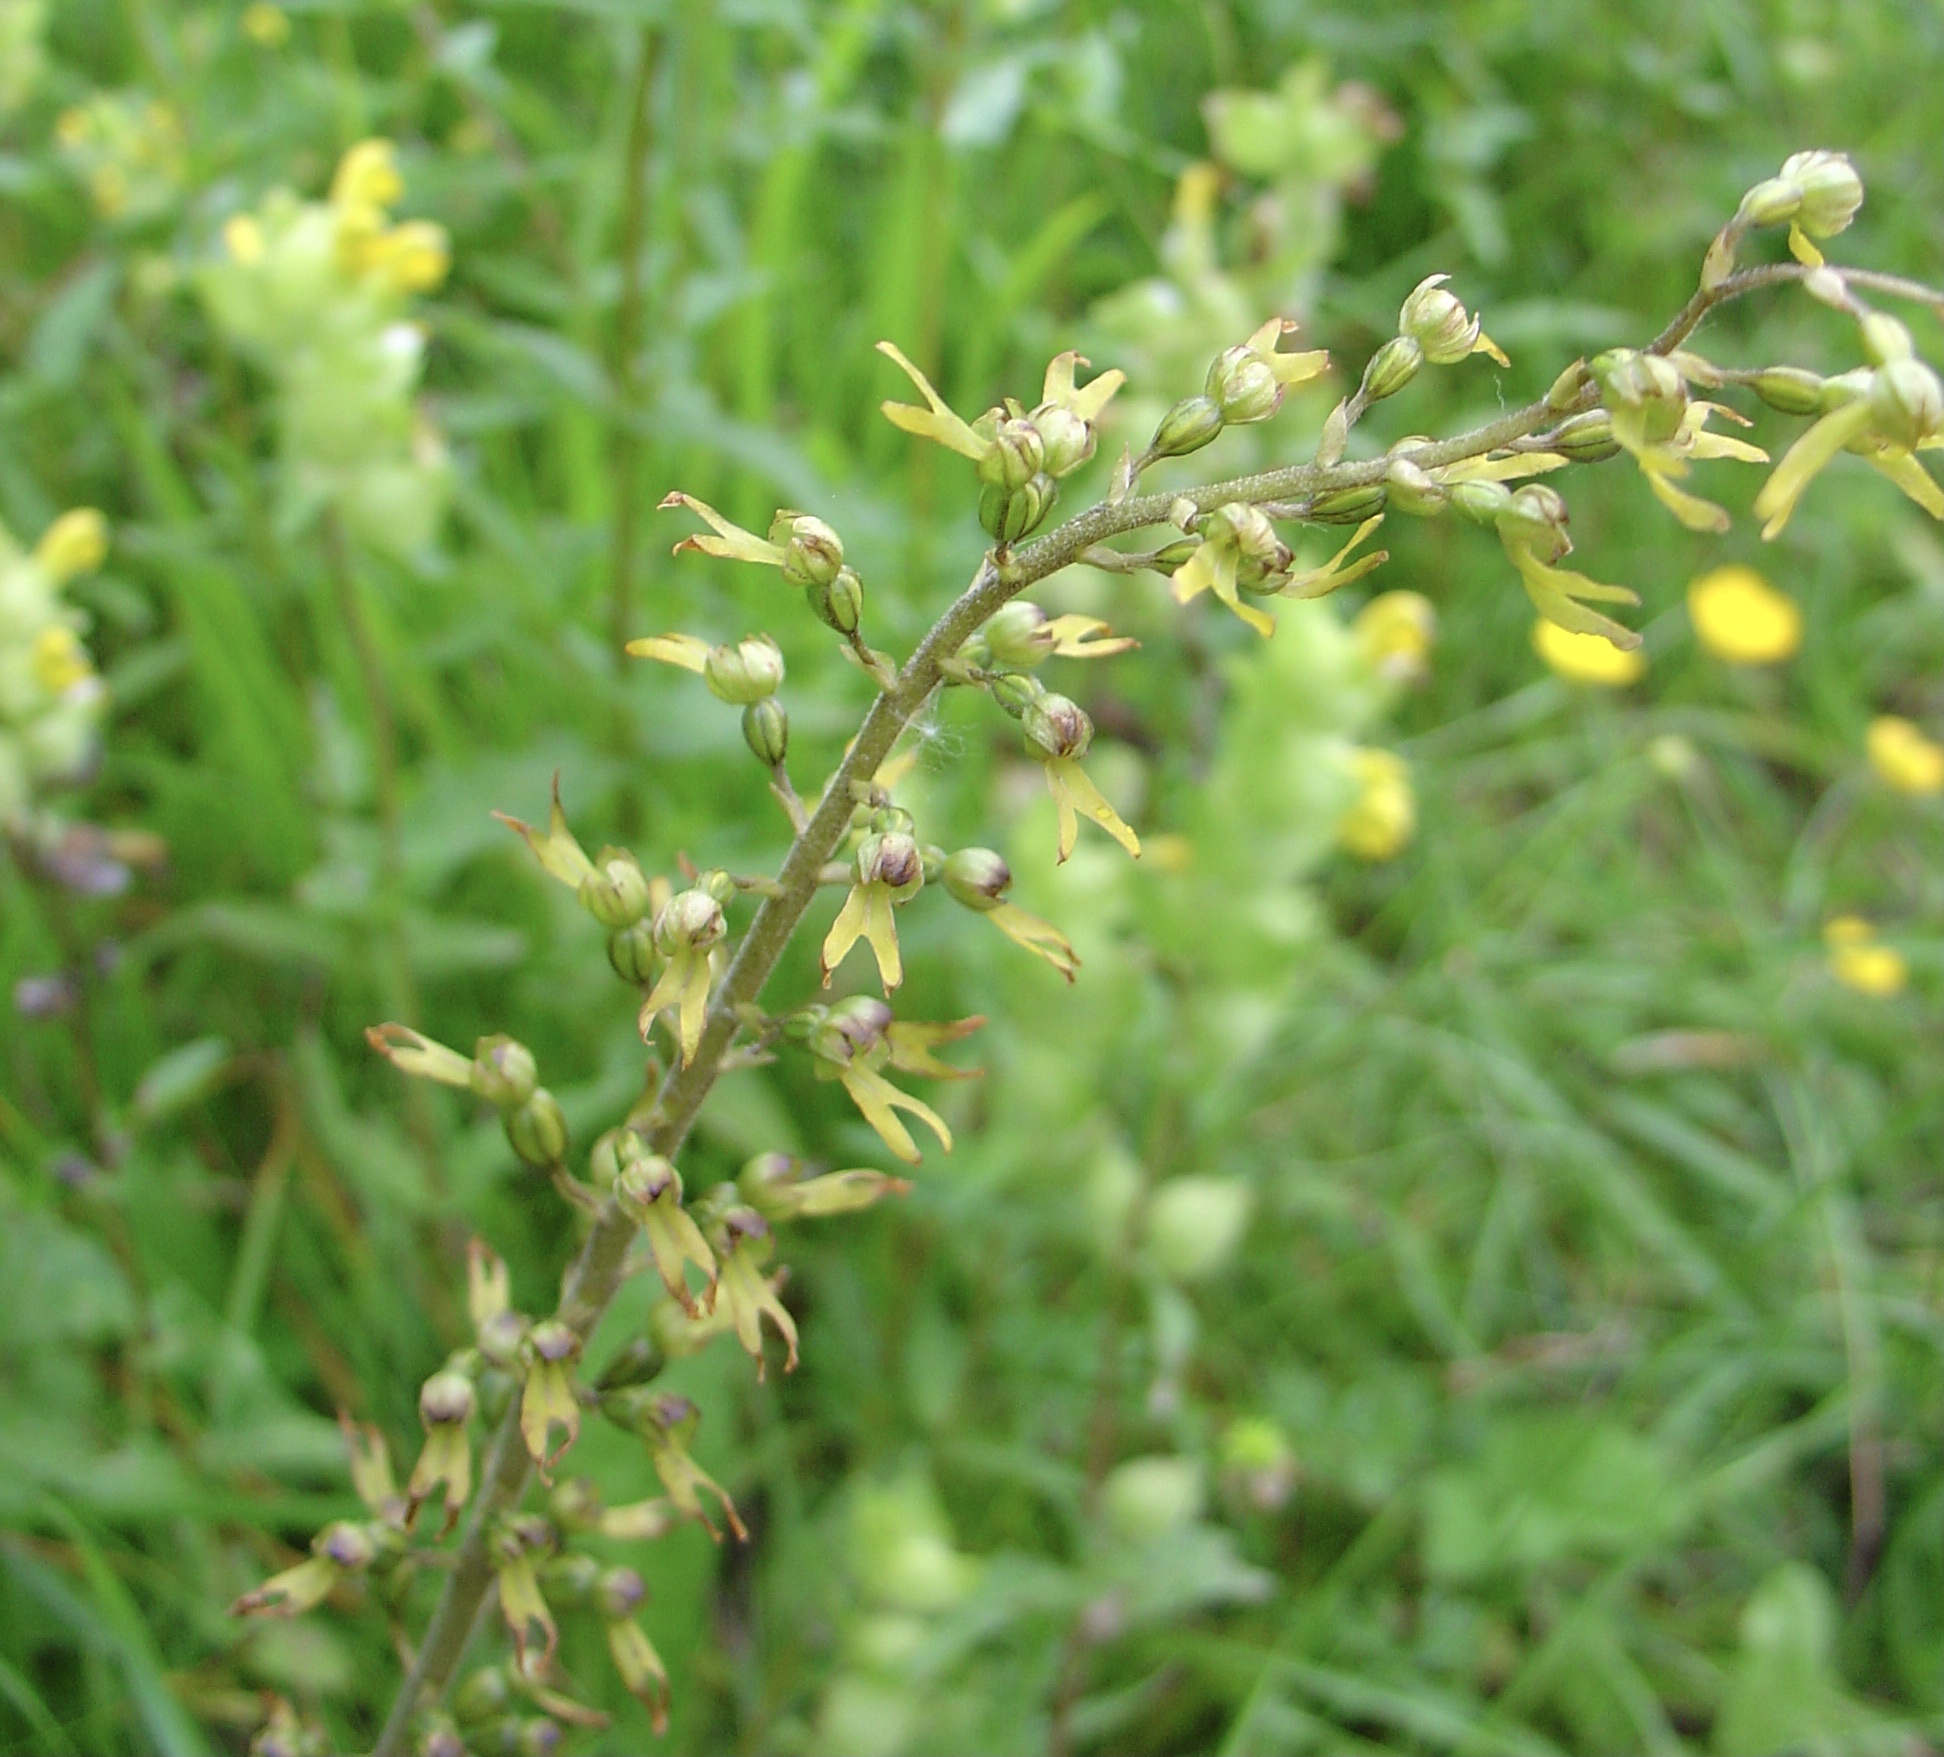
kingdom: Plantae
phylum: Tracheophyta
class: Liliopsida
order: Asparagales
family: Orchidaceae
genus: Neottia
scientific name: Neottia ovata
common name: Common twayblade
